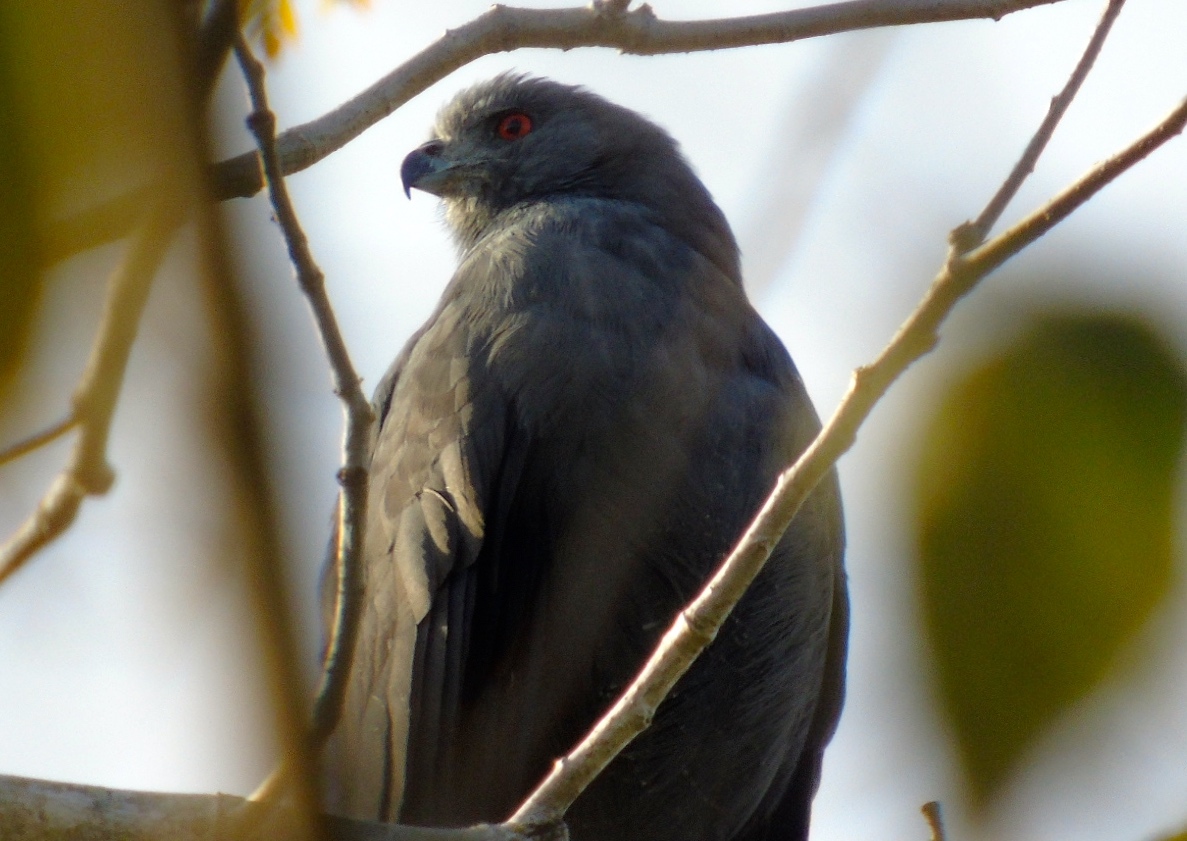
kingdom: Animalia
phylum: Chordata
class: Aves
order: Accipitriformes
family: Accipitridae
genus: Geranospiza
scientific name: Geranospiza caerulescens
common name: Crane hawk
